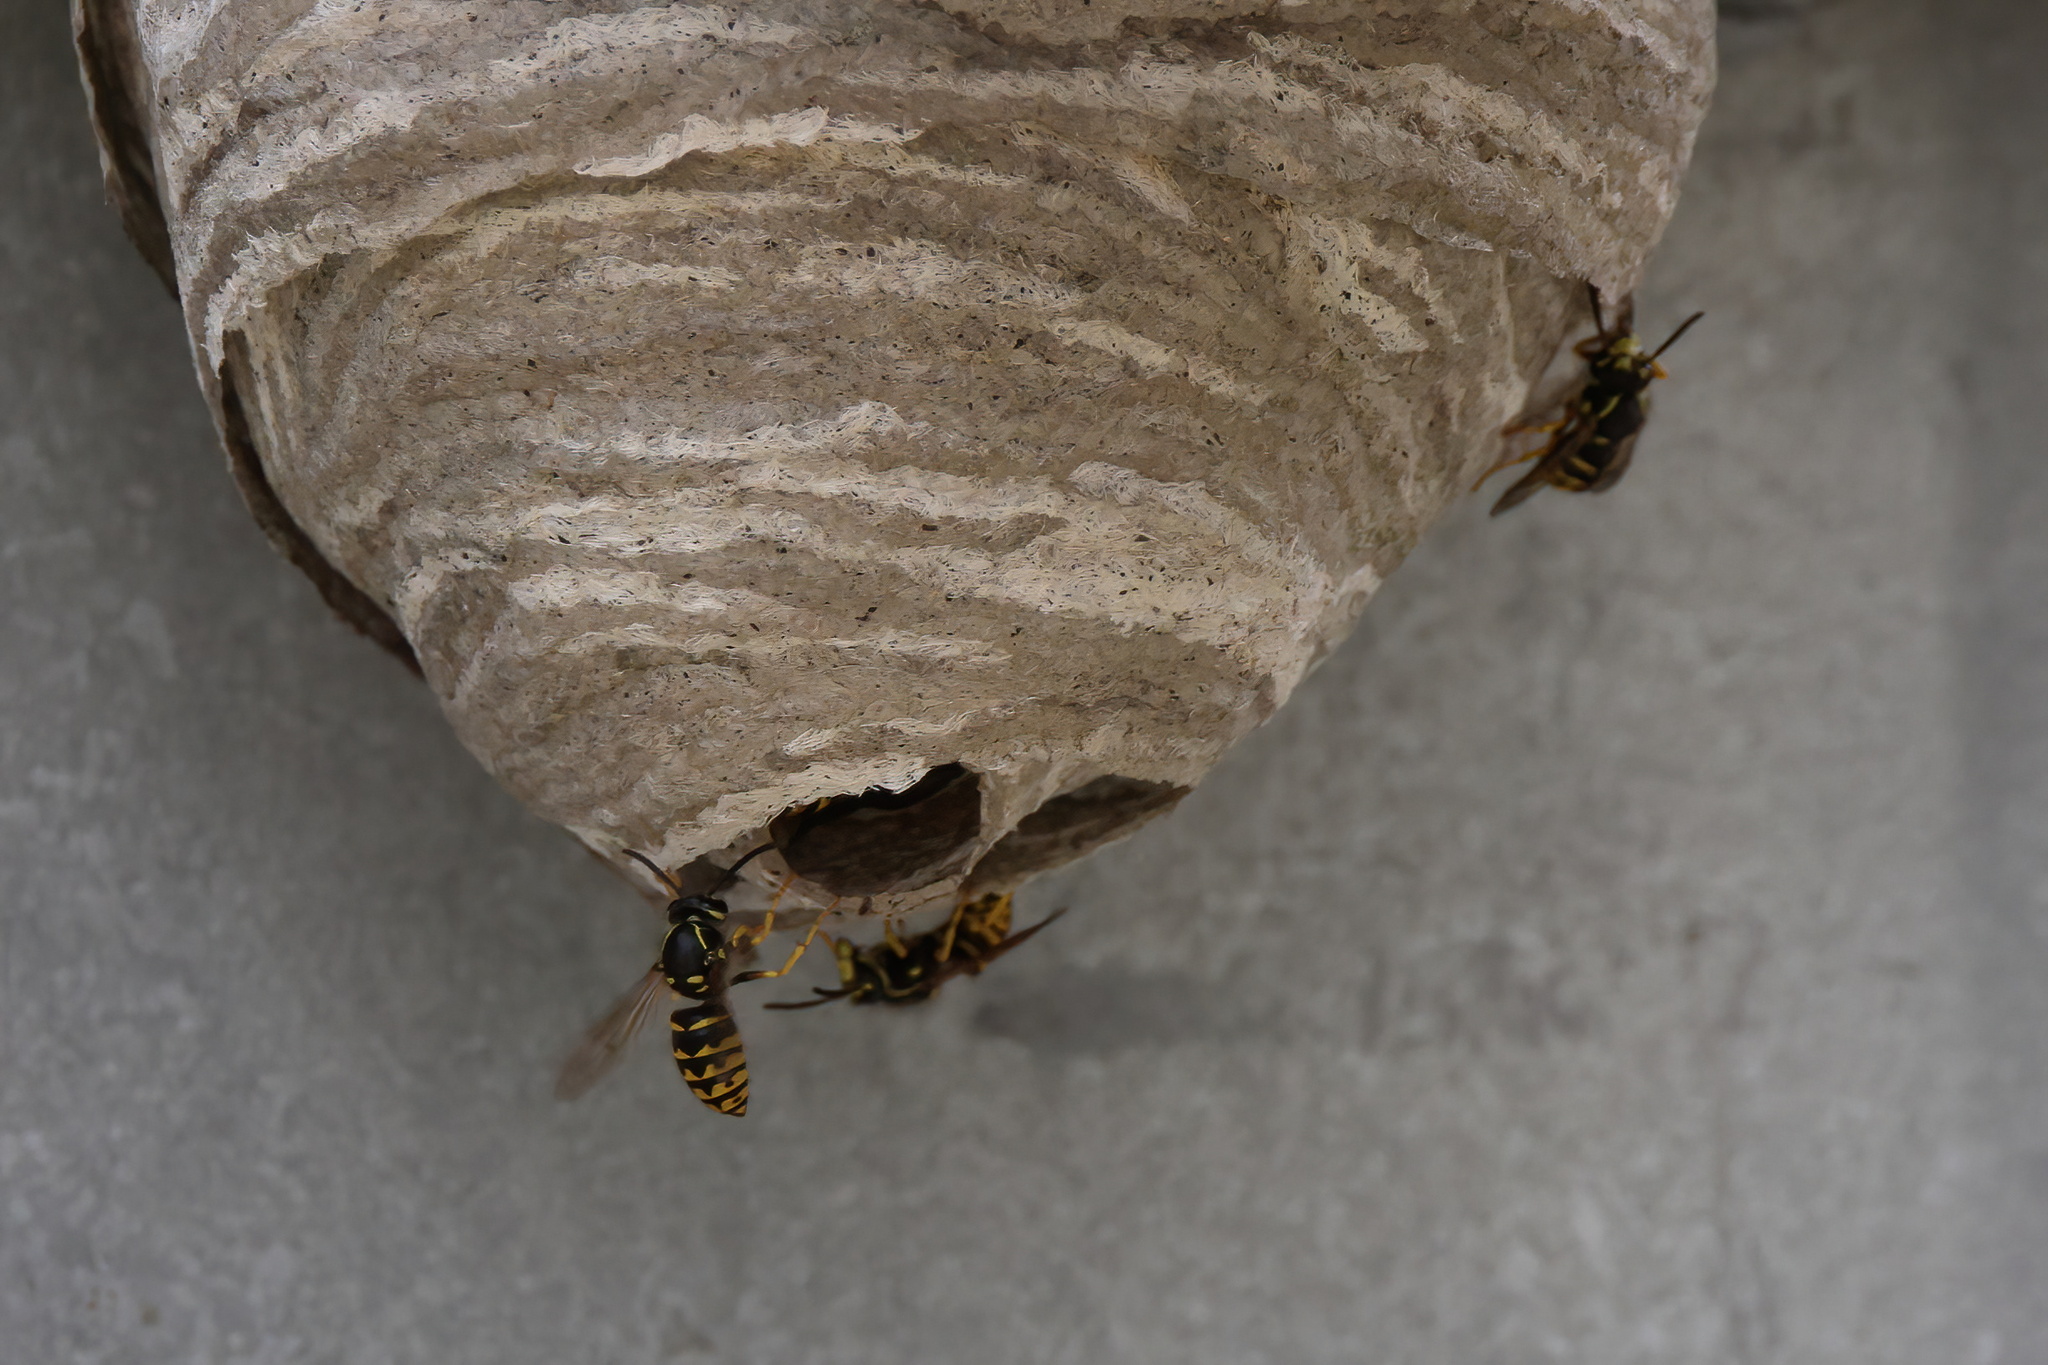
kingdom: Animalia
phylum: Arthropoda
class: Insecta
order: Hymenoptera
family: Vespidae
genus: Dolichovespula
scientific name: Dolichovespula arenaria
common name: Aerial yellowjacket
